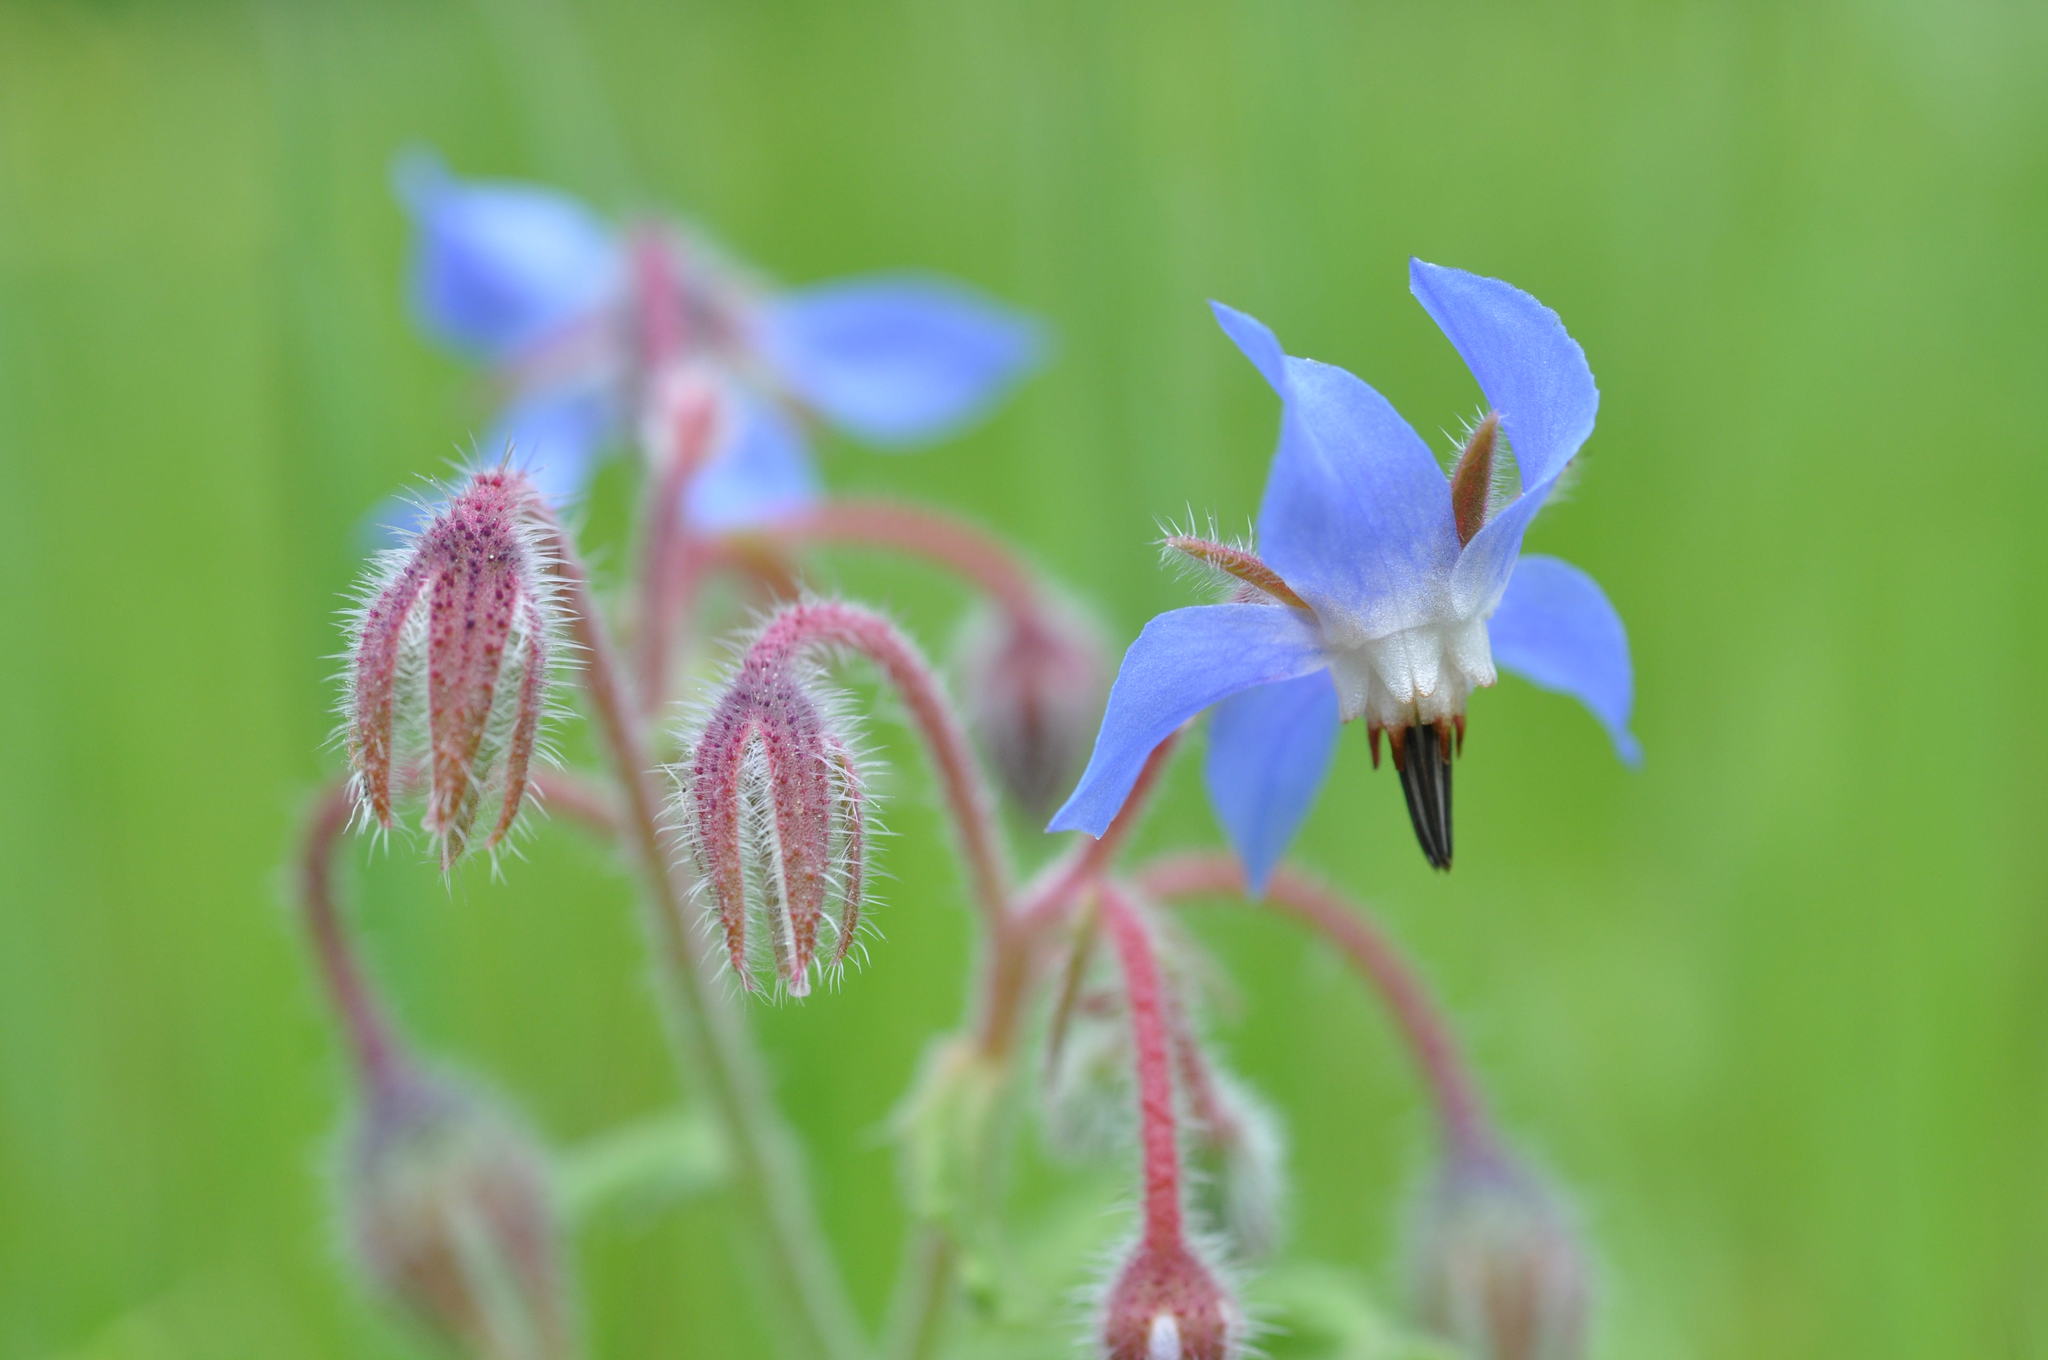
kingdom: Plantae
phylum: Tracheophyta
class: Magnoliopsida
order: Boraginales
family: Boraginaceae
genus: Borago
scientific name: Borago officinalis
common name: Borage
